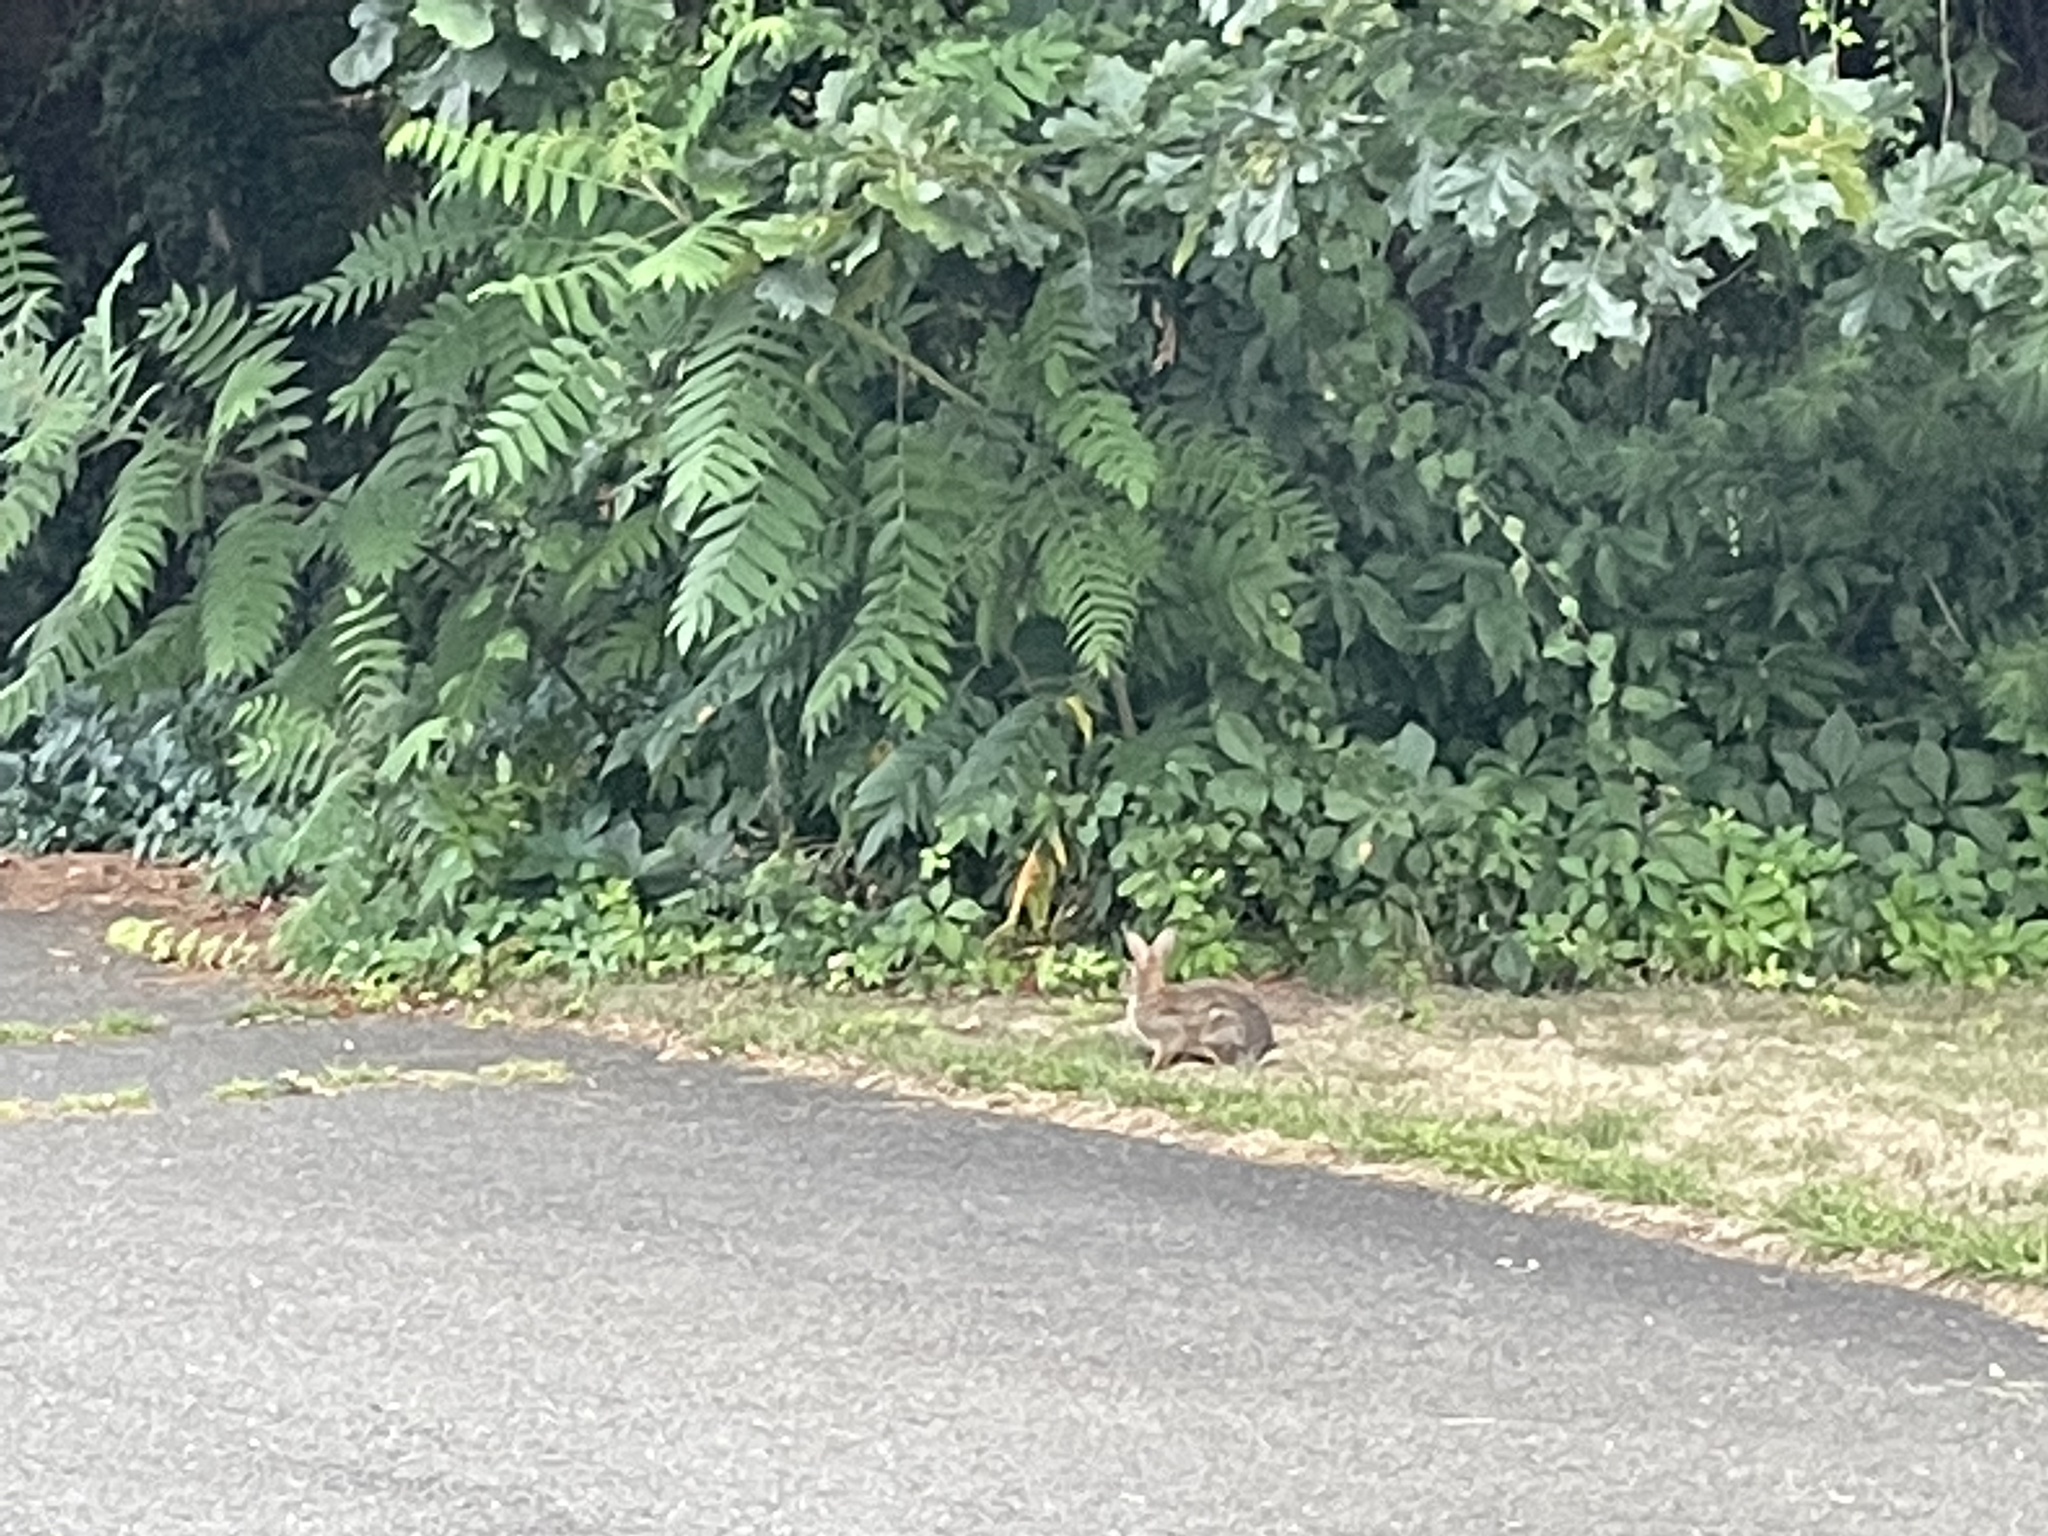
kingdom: Animalia
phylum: Chordata
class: Mammalia
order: Lagomorpha
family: Leporidae
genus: Sylvilagus
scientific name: Sylvilagus floridanus
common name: Eastern cottontail
